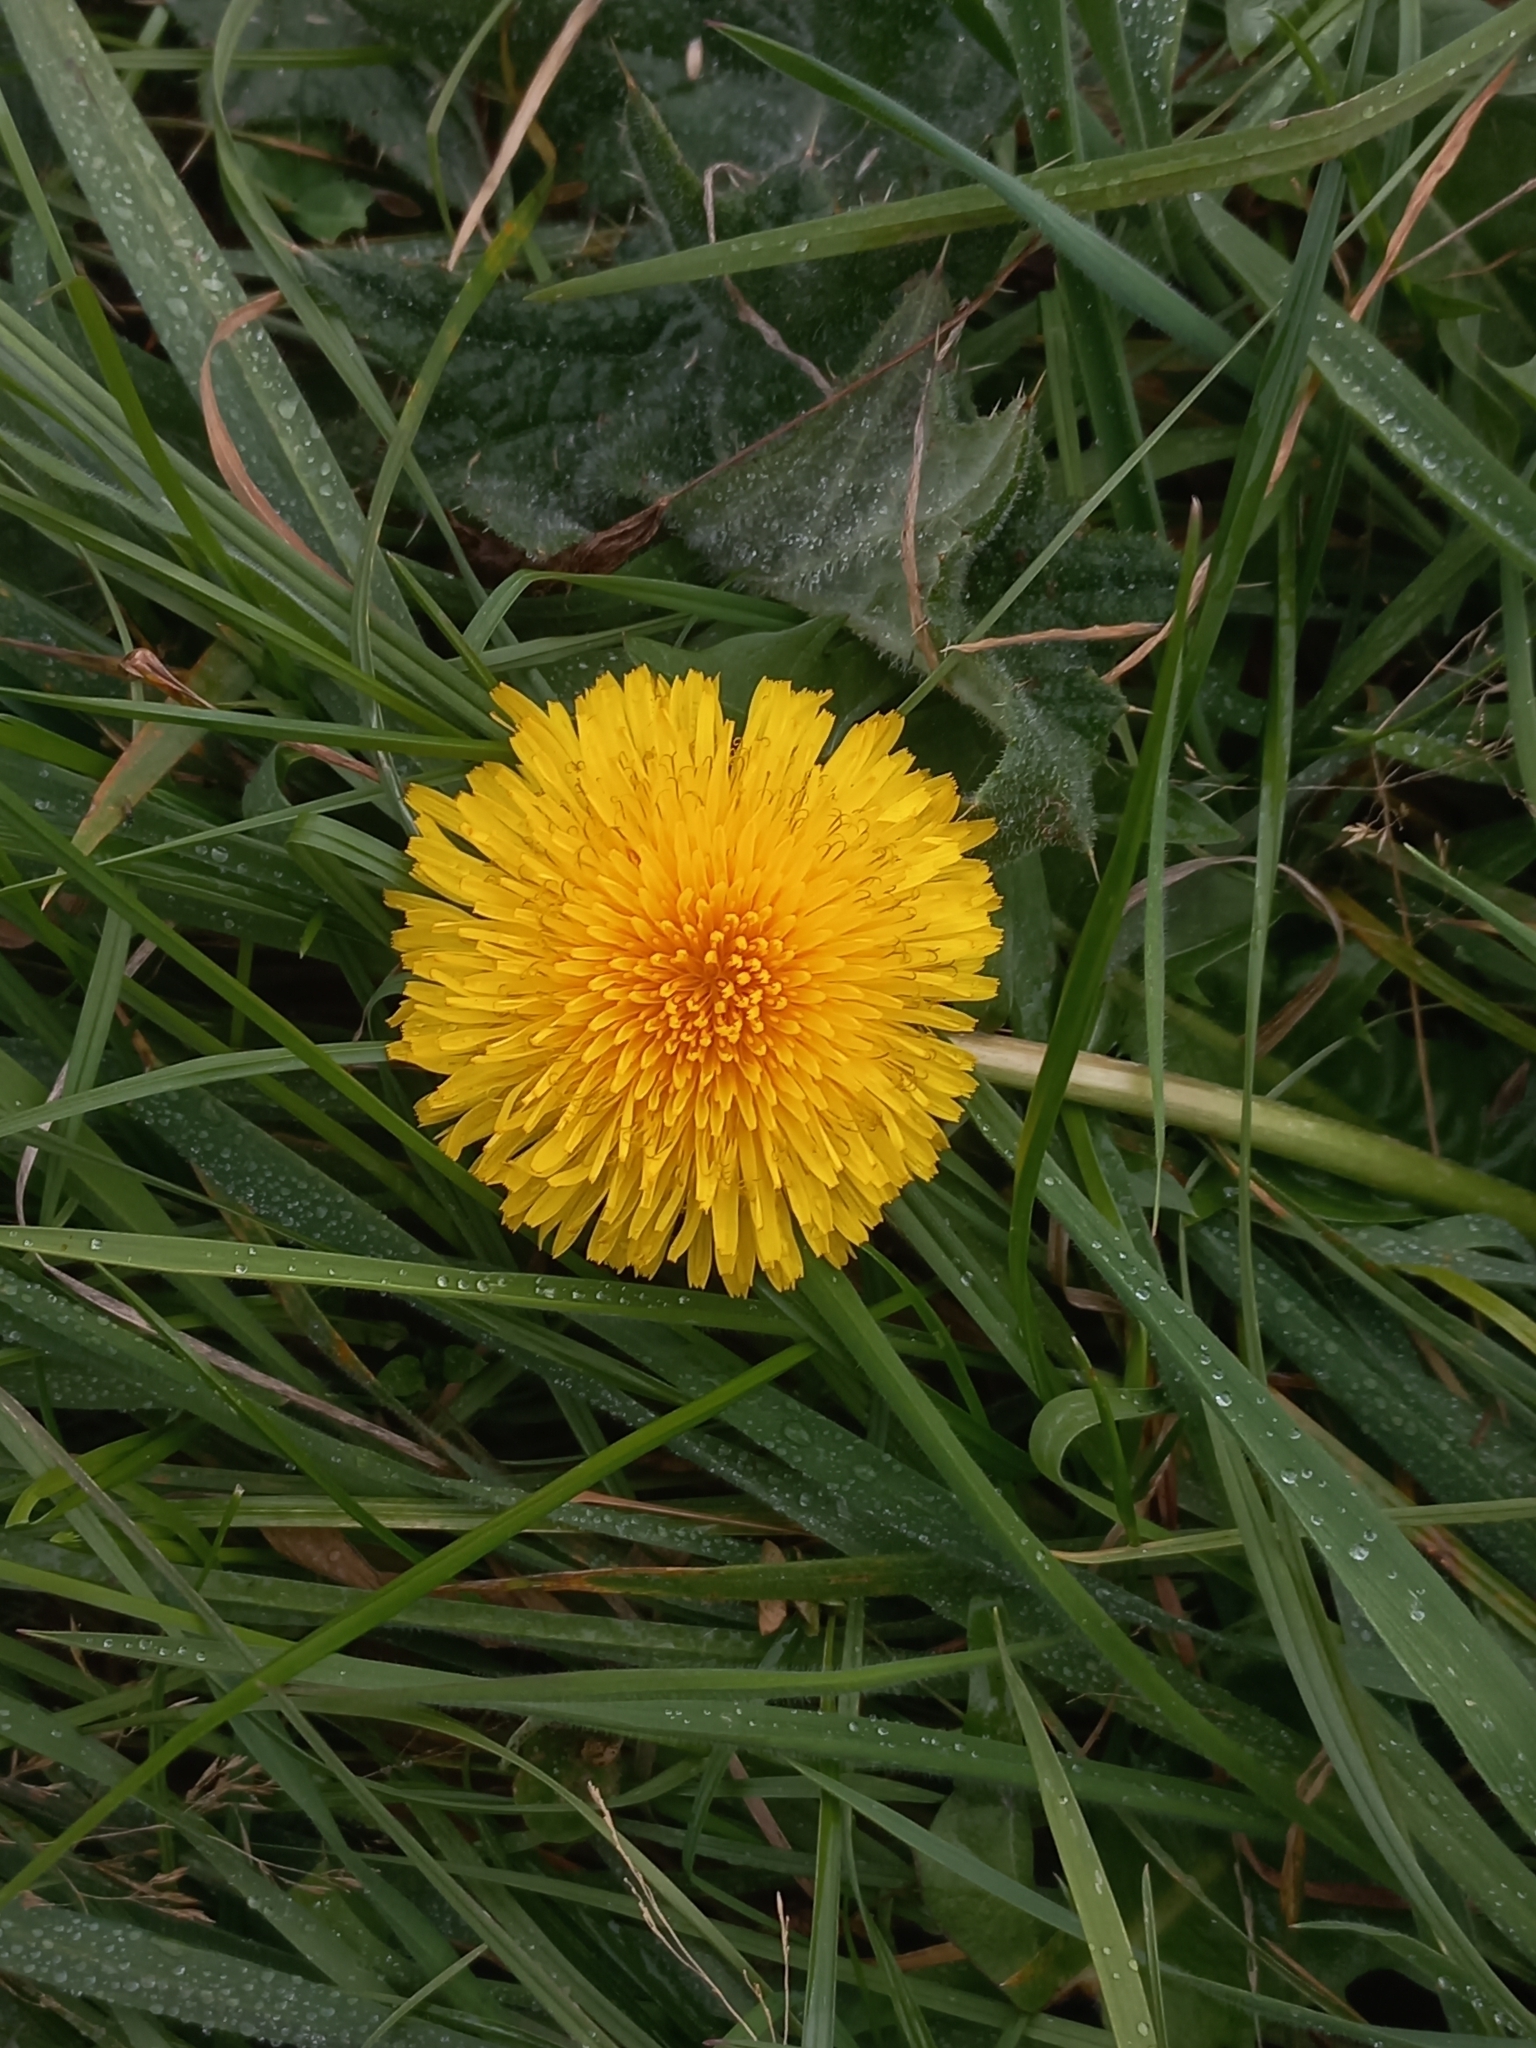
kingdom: Plantae
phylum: Tracheophyta
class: Magnoliopsida
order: Asterales
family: Asteraceae
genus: Taraxacum
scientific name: Taraxacum officinale
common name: Common dandelion
